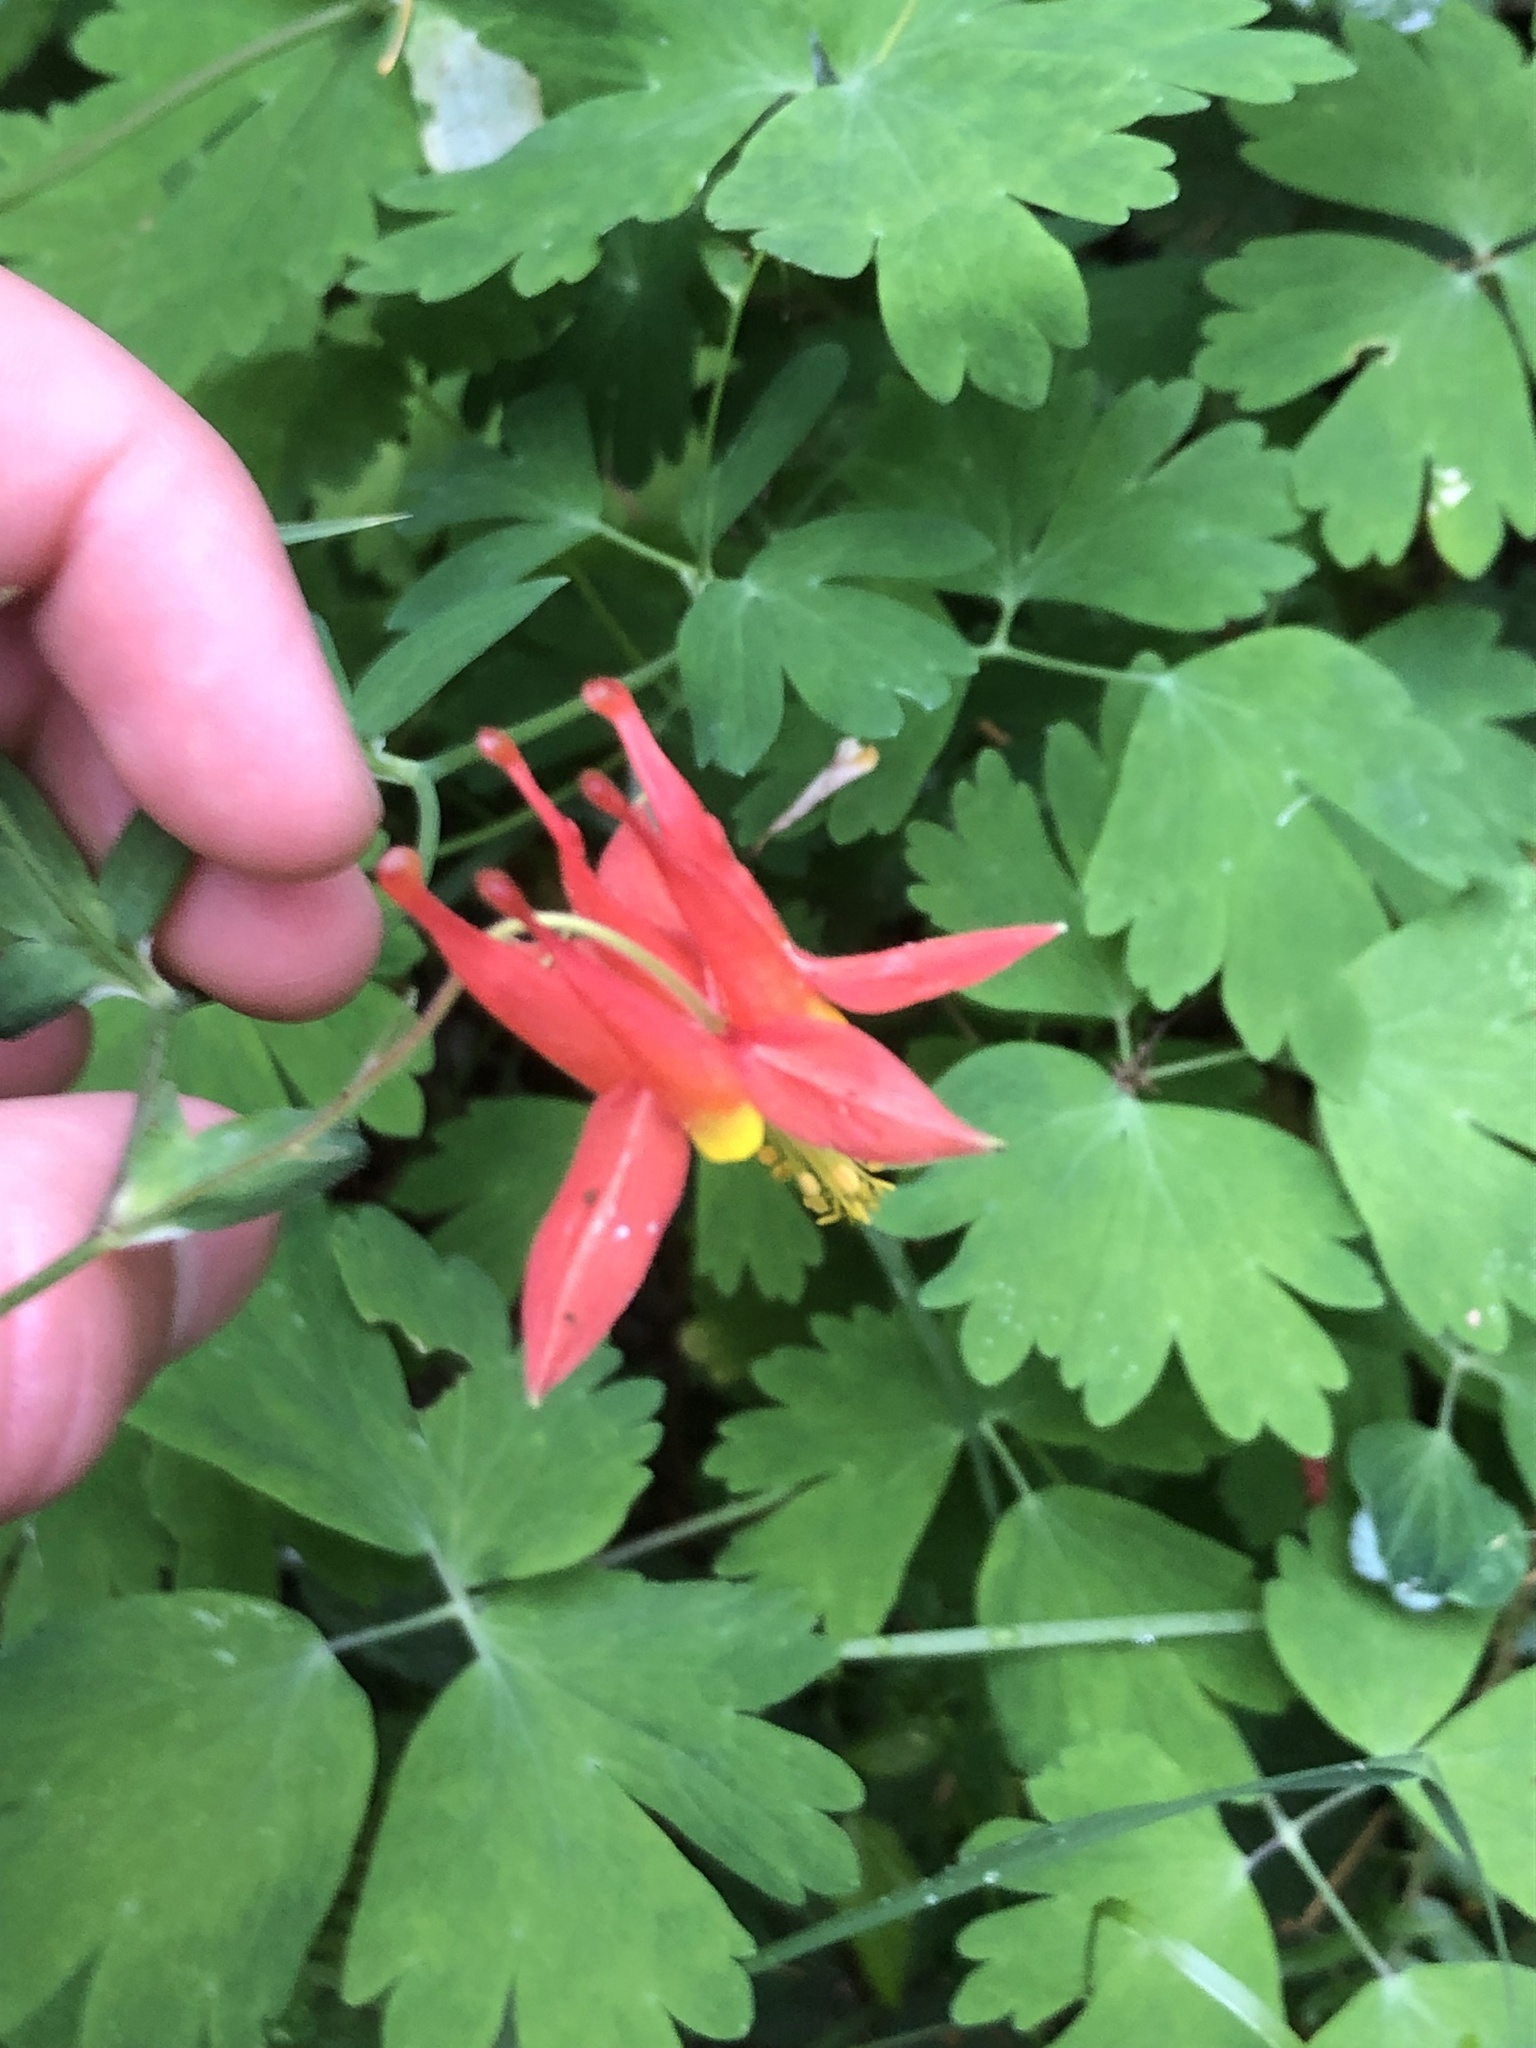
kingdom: Plantae
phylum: Tracheophyta
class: Magnoliopsida
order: Ranunculales
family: Ranunculaceae
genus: Aquilegia
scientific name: Aquilegia formosa
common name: Sitka columbine
